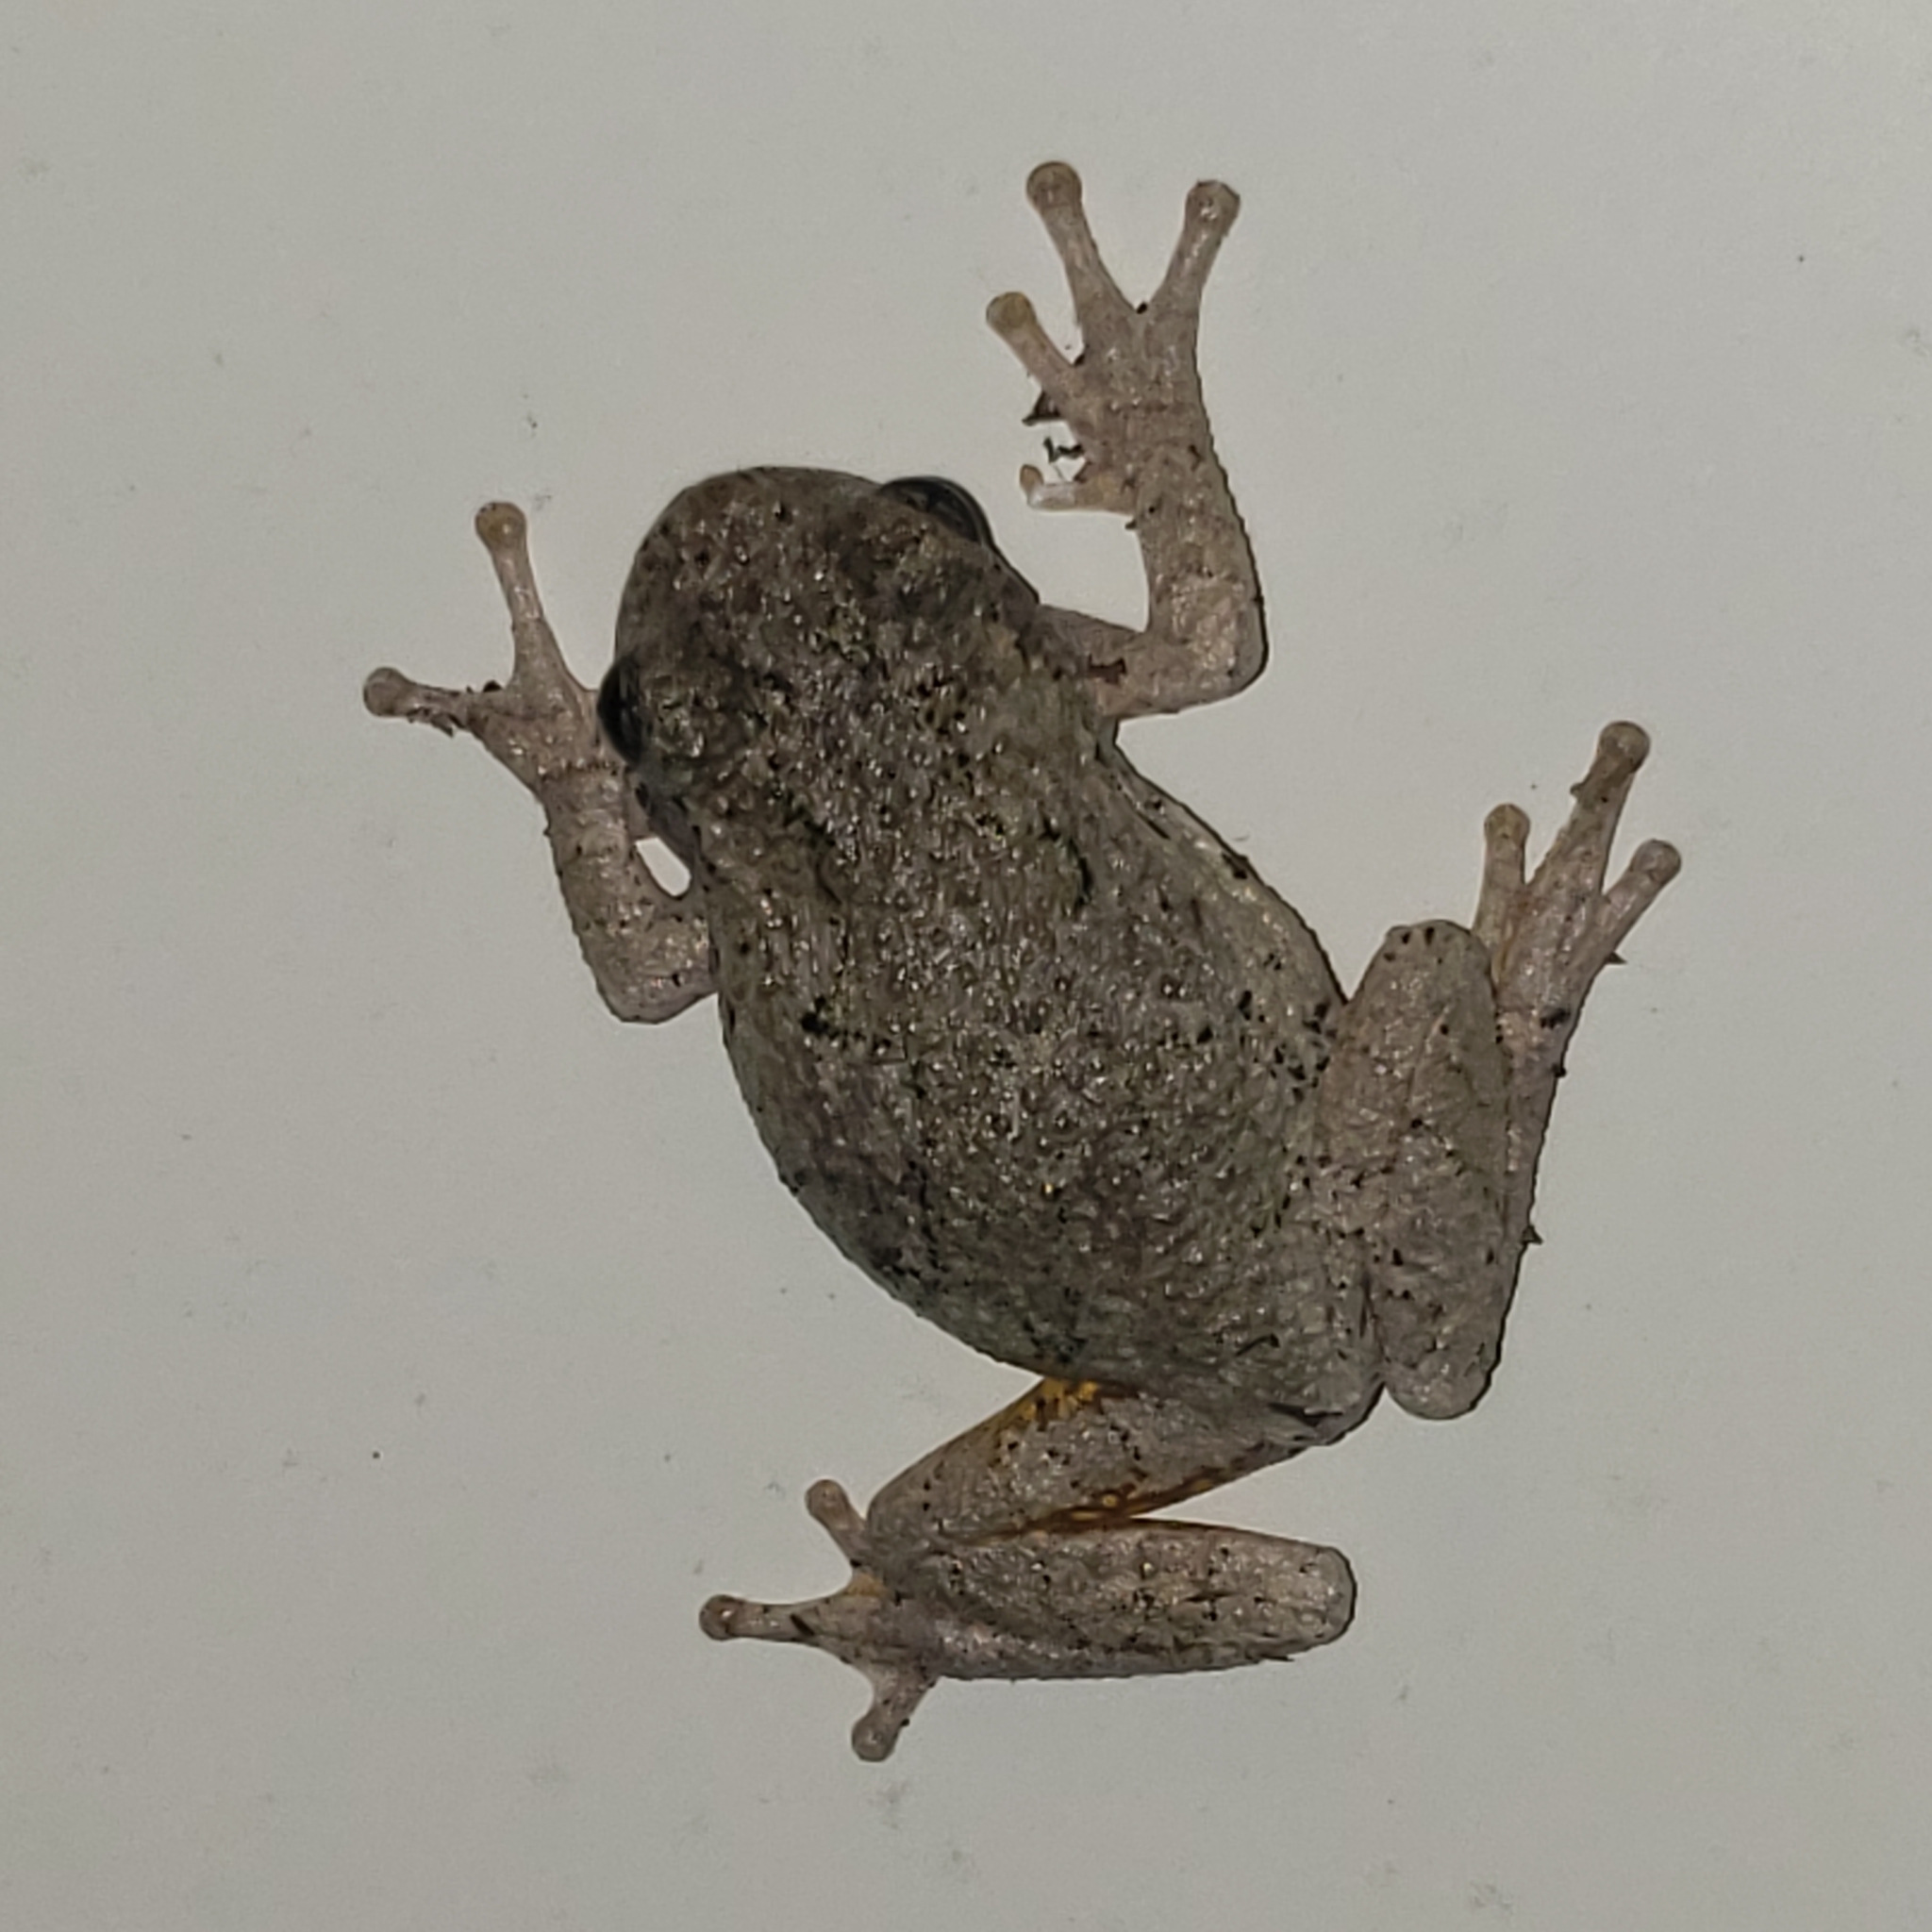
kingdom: Animalia
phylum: Chordata
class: Amphibia
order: Anura
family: Hylidae
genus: Hyla
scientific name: Hyla
